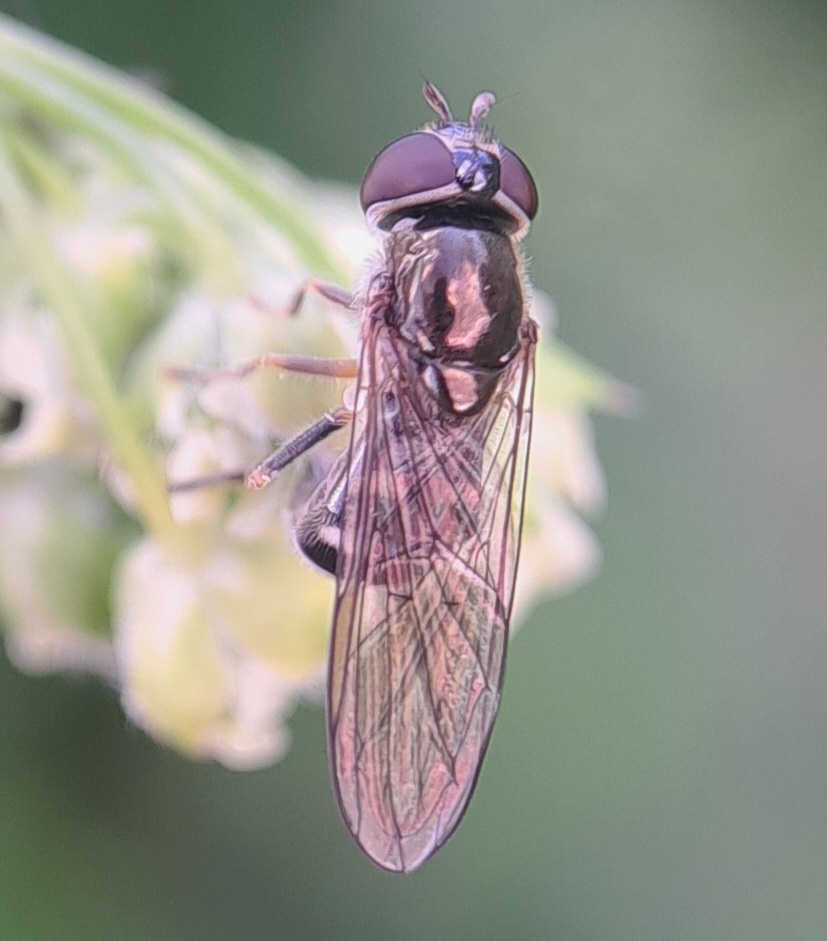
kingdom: Animalia
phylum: Arthropoda
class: Insecta
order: Diptera
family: Syrphidae
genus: Platycheirus
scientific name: Platycheirus
